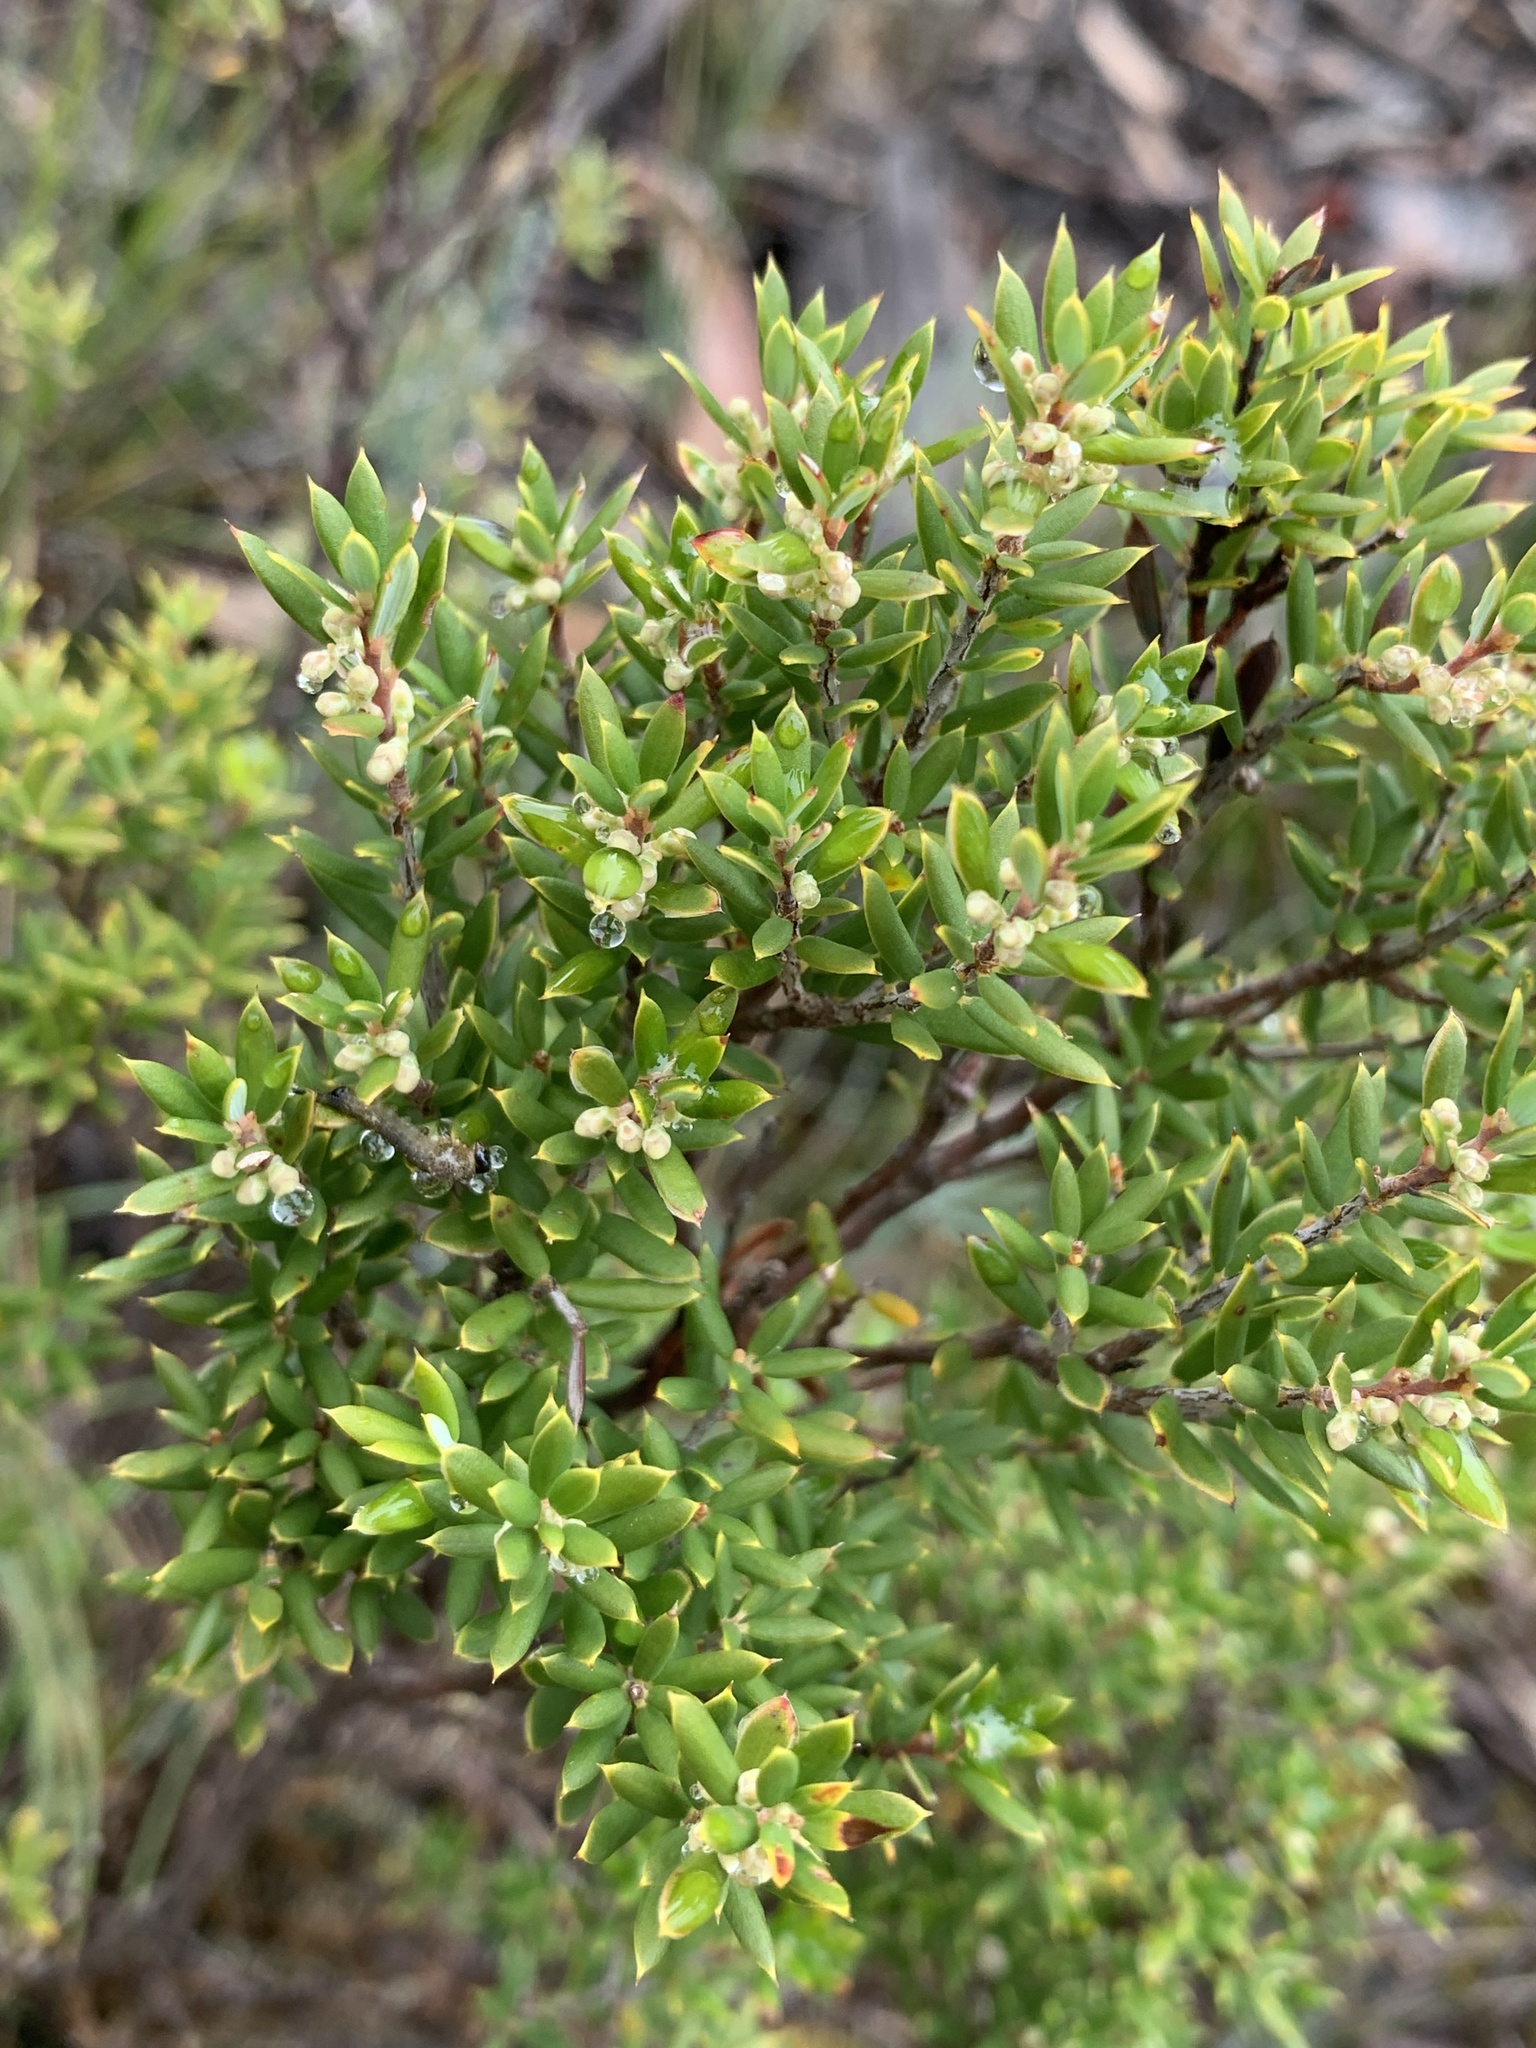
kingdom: Plantae
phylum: Tracheophyta
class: Magnoliopsida
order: Ericales
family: Ericaceae
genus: Monotoca
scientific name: Monotoca scoparia
